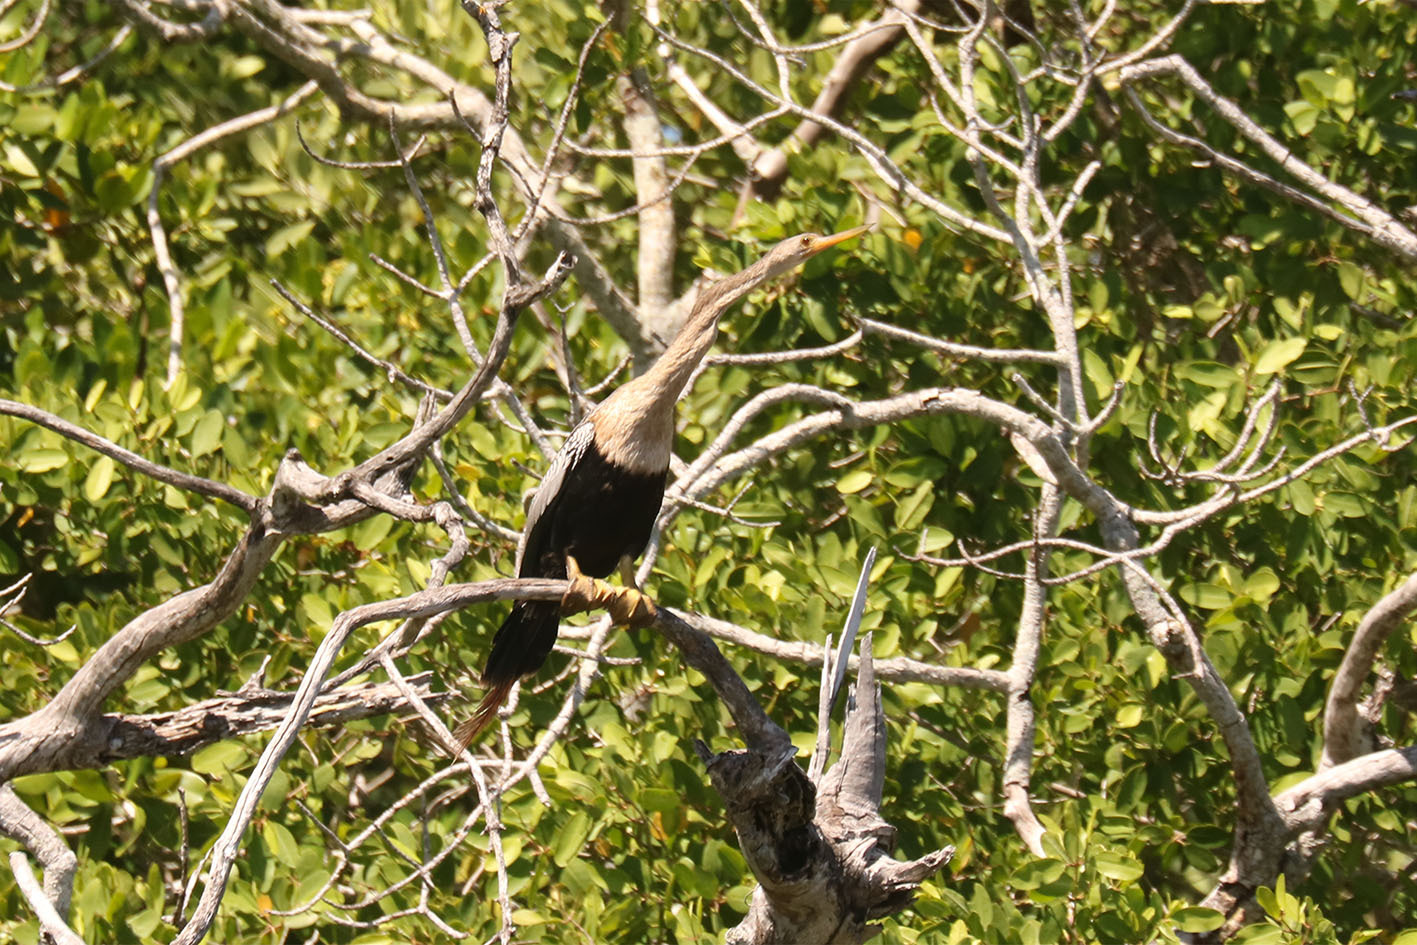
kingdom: Animalia
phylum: Chordata
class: Aves
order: Suliformes
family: Anhingidae
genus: Anhinga
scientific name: Anhinga anhinga
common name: Anhinga
